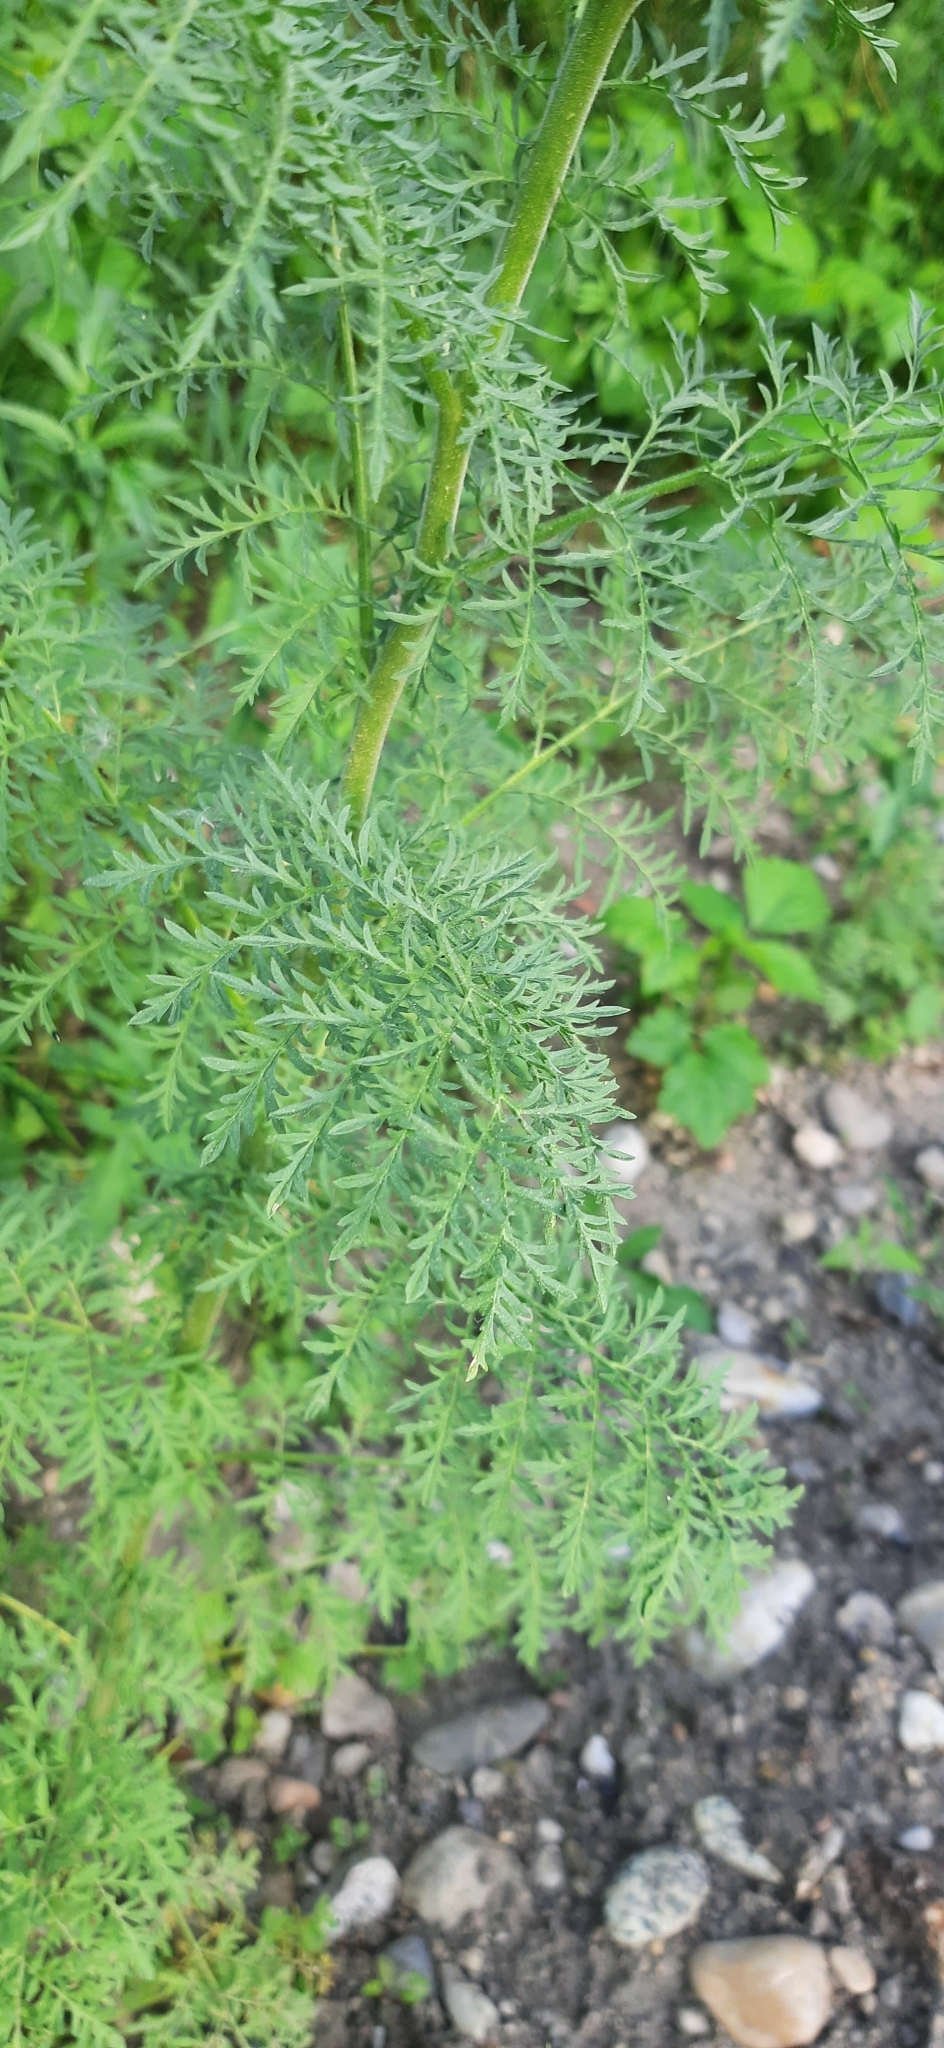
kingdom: Plantae
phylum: Tracheophyta
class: Magnoliopsida
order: Brassicales
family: Brassicaceae
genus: Descurainia
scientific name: Descurainia sophia
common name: Flixweed
